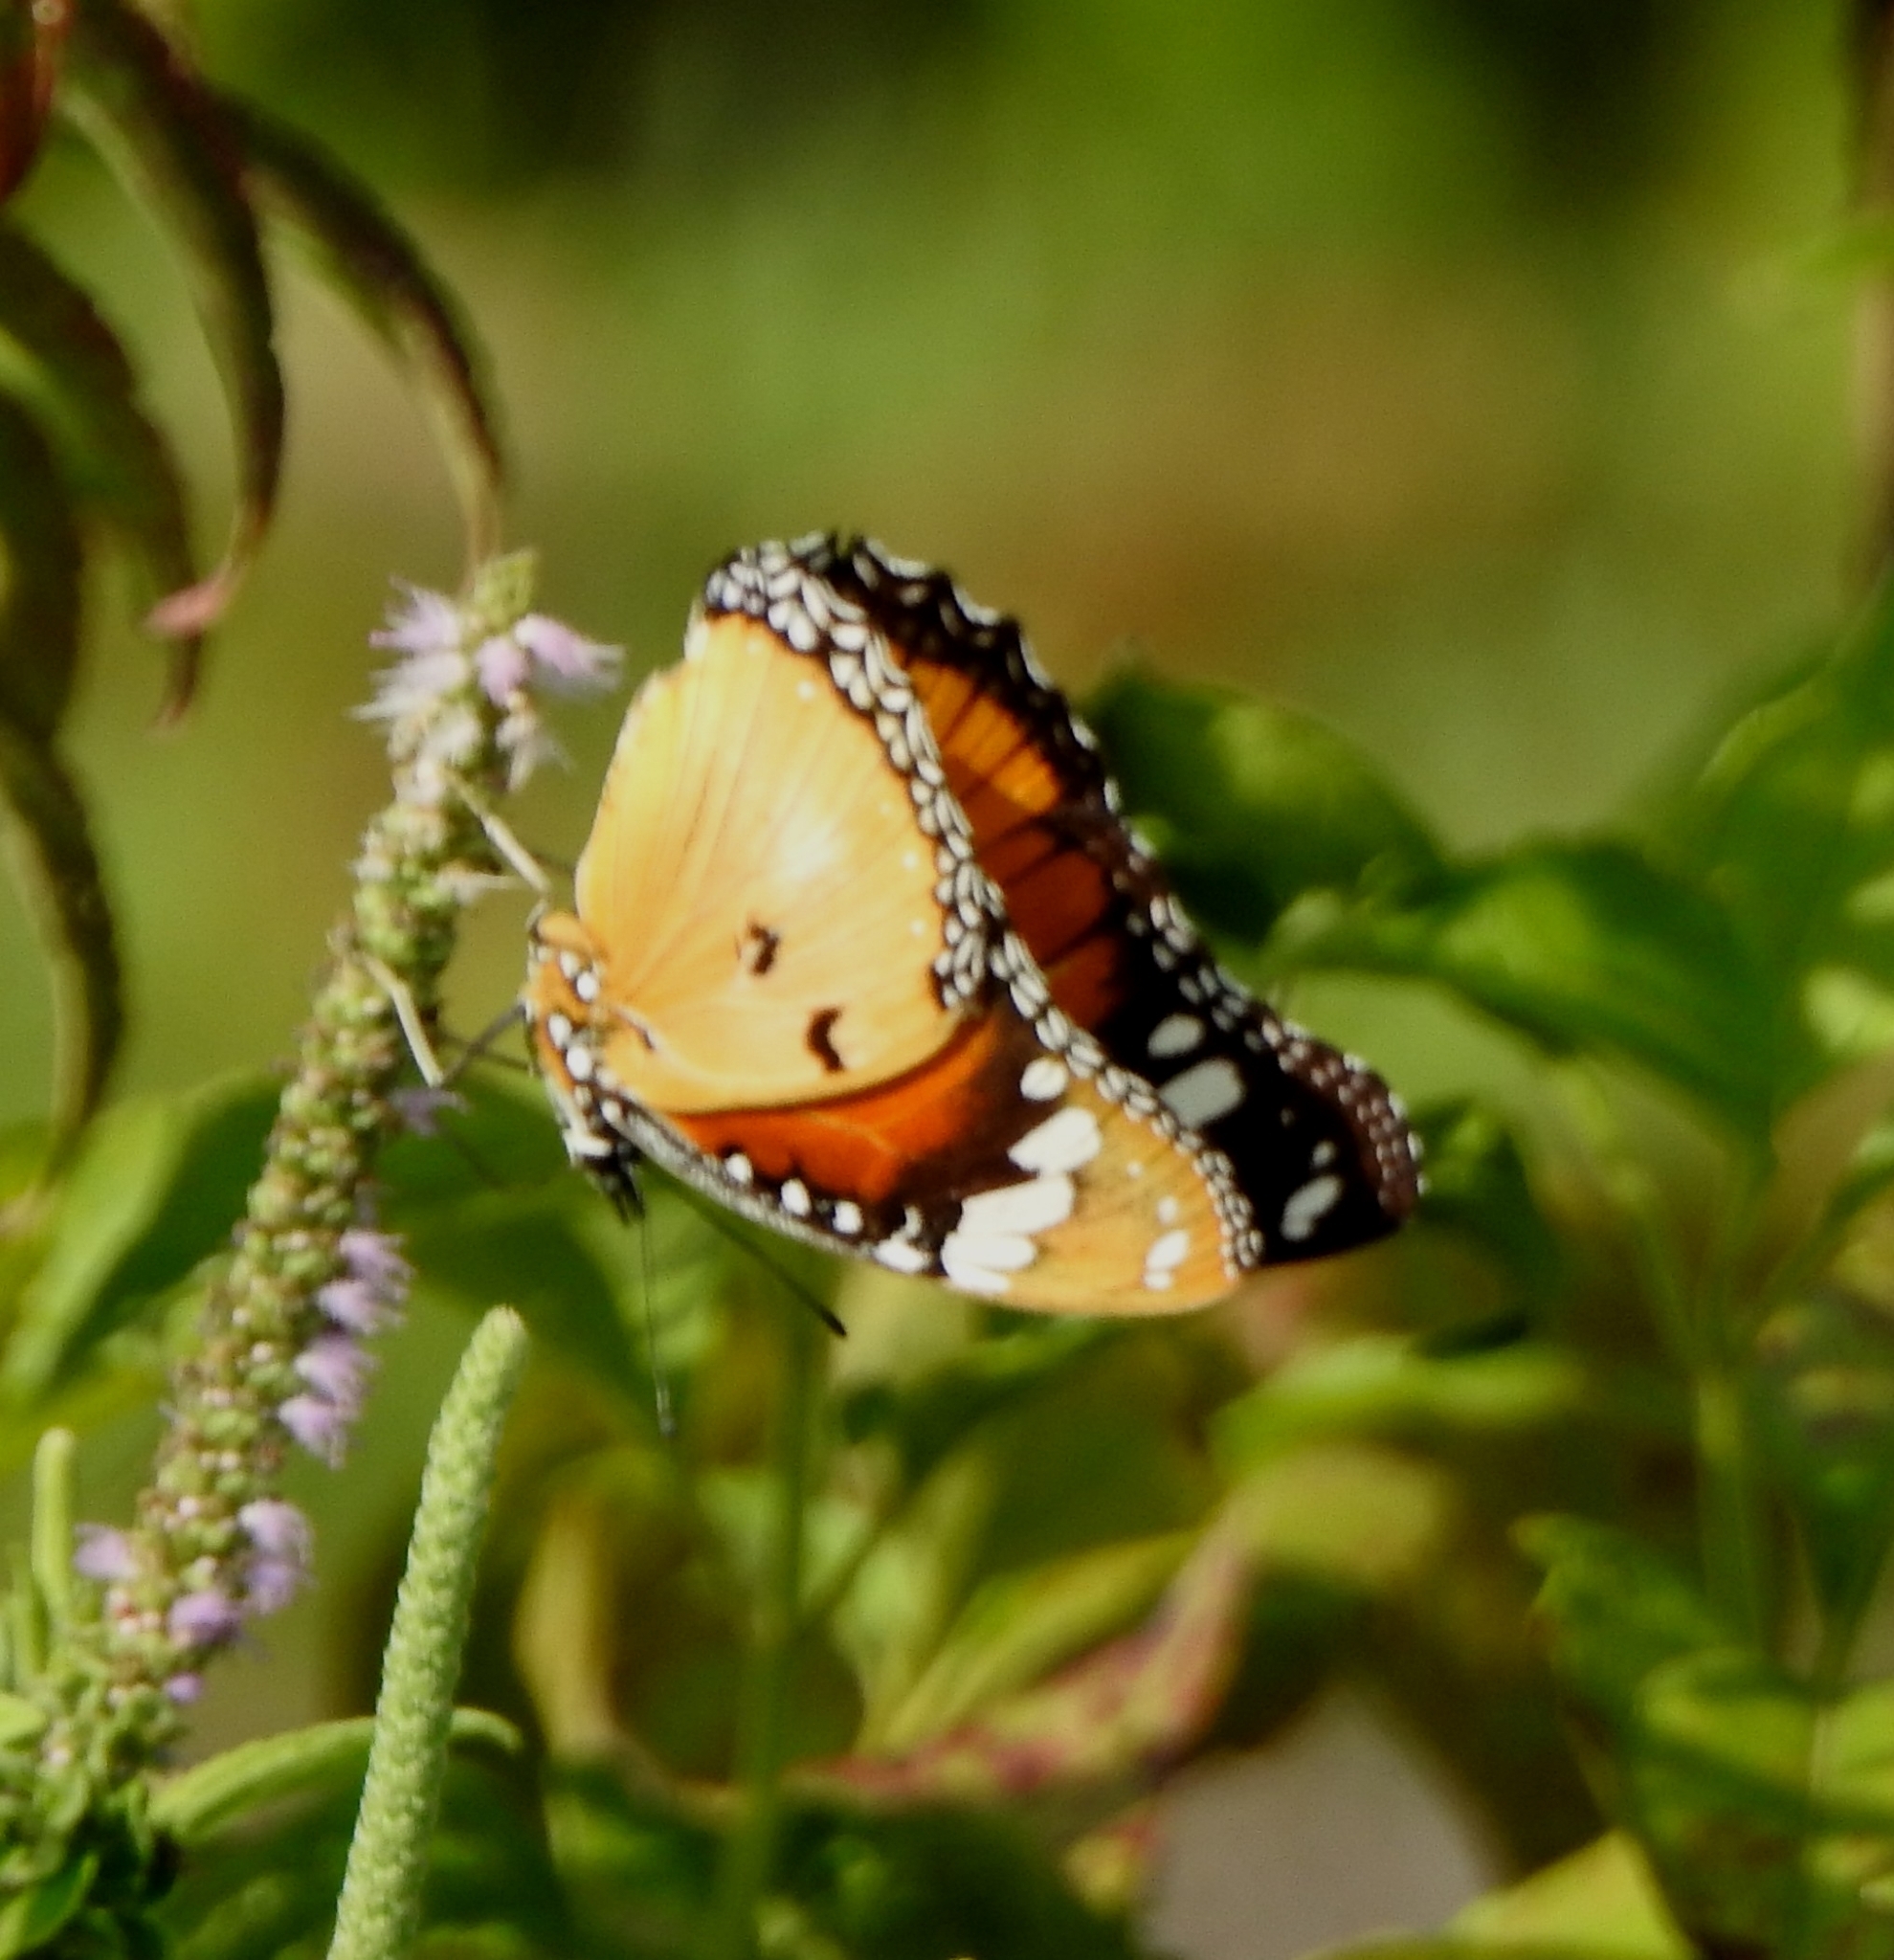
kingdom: Animalia
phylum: Arthropoda
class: Insecta
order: Lepidoptera
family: Nymphalidae
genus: Hypolimnas
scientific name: Hypolimnas misippus
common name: False plain tiger
